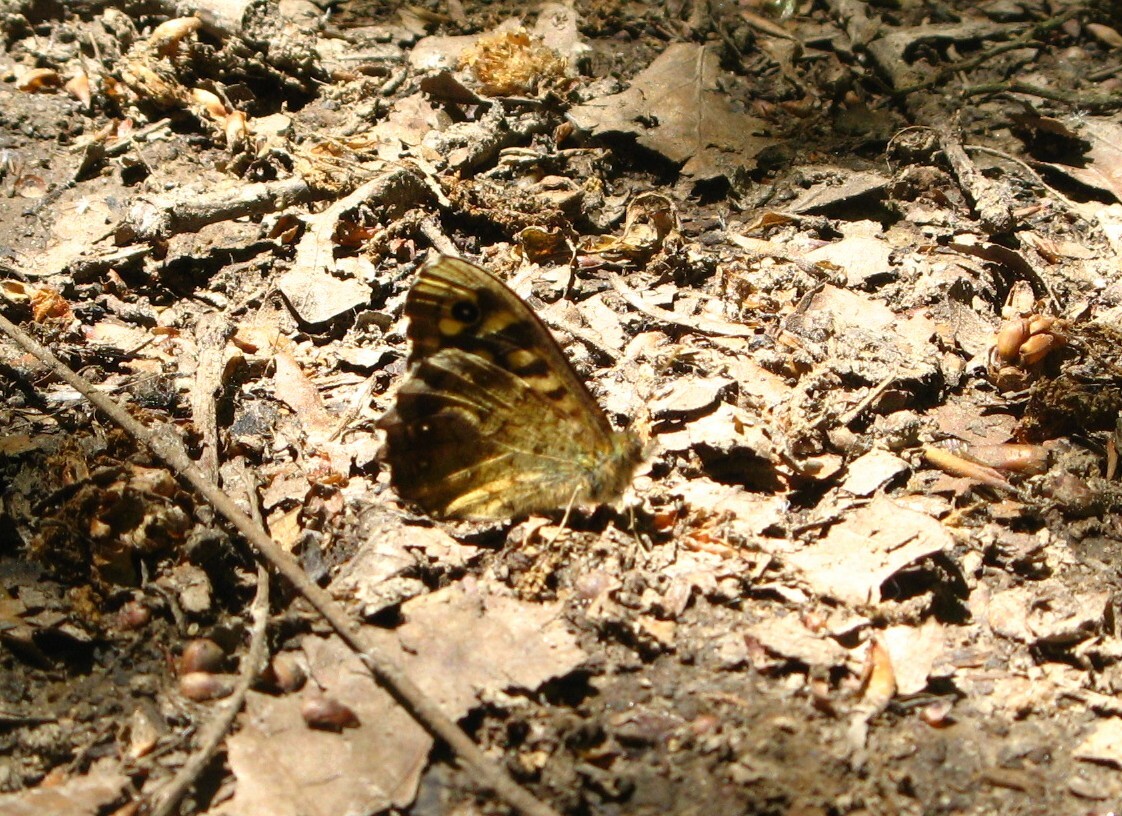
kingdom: Animalia
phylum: Arthropoda
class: Insecta
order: Lepidoptera
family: Nymphalidae
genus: Pararge
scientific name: Pararge aegeria
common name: Speckled wood
